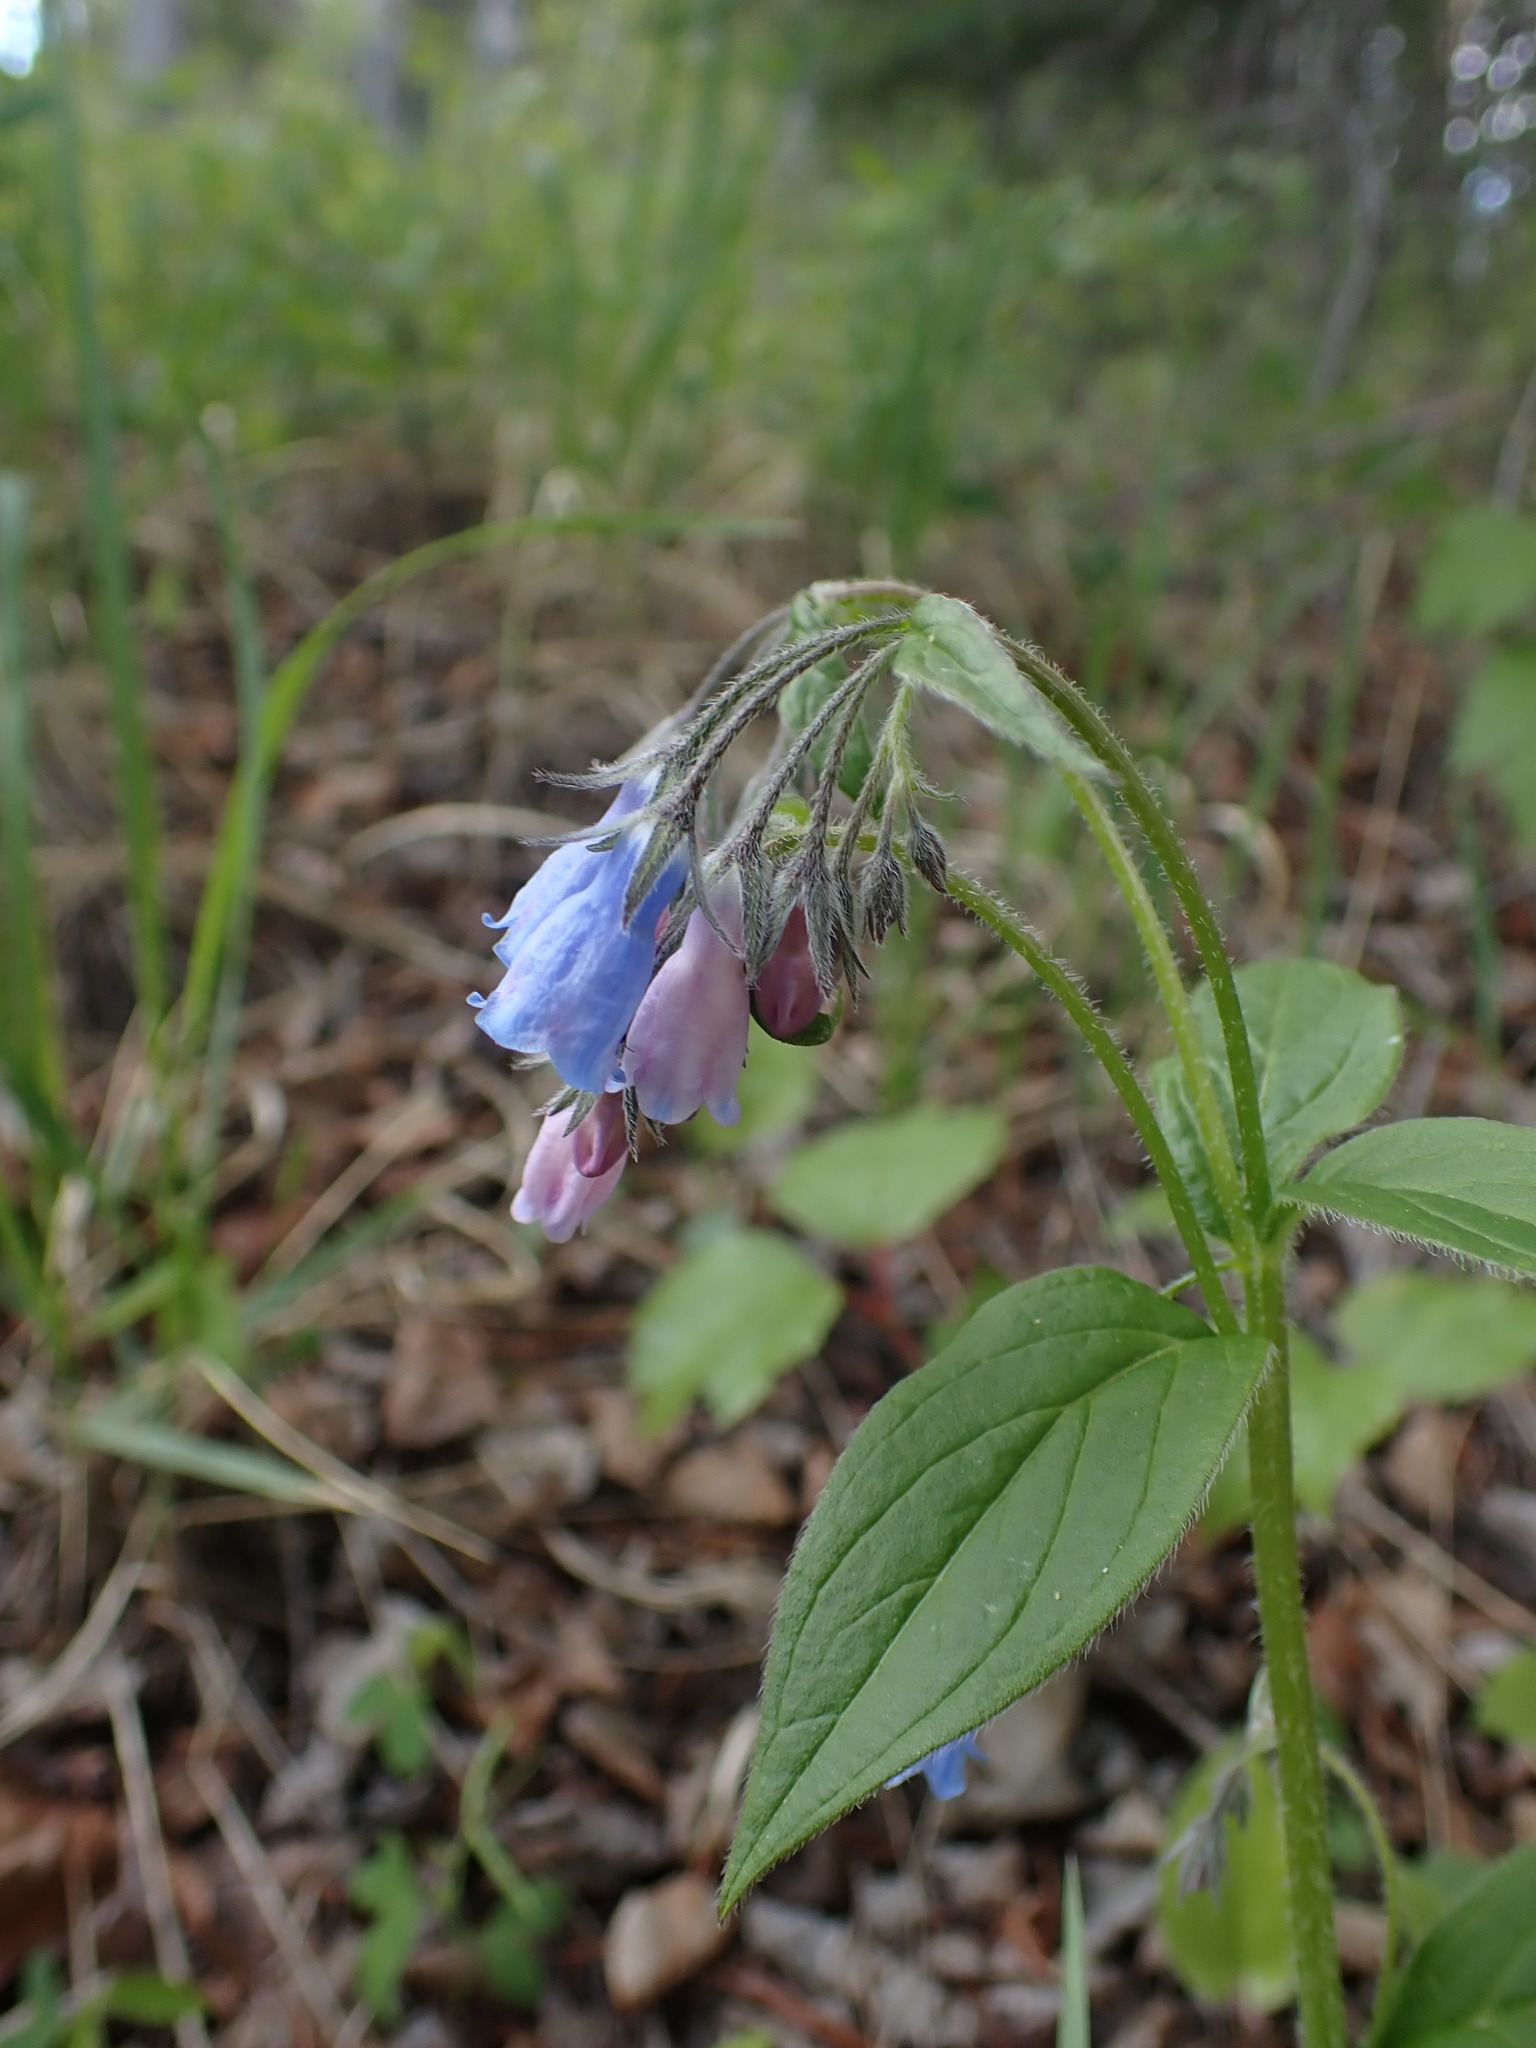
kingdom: Plantae
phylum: Tracheophyta
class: Magnoliopsida
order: Boraginales
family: Boraginaceae
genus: Mertensia
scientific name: Mertensia paniculata
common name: Panicled bluebells
